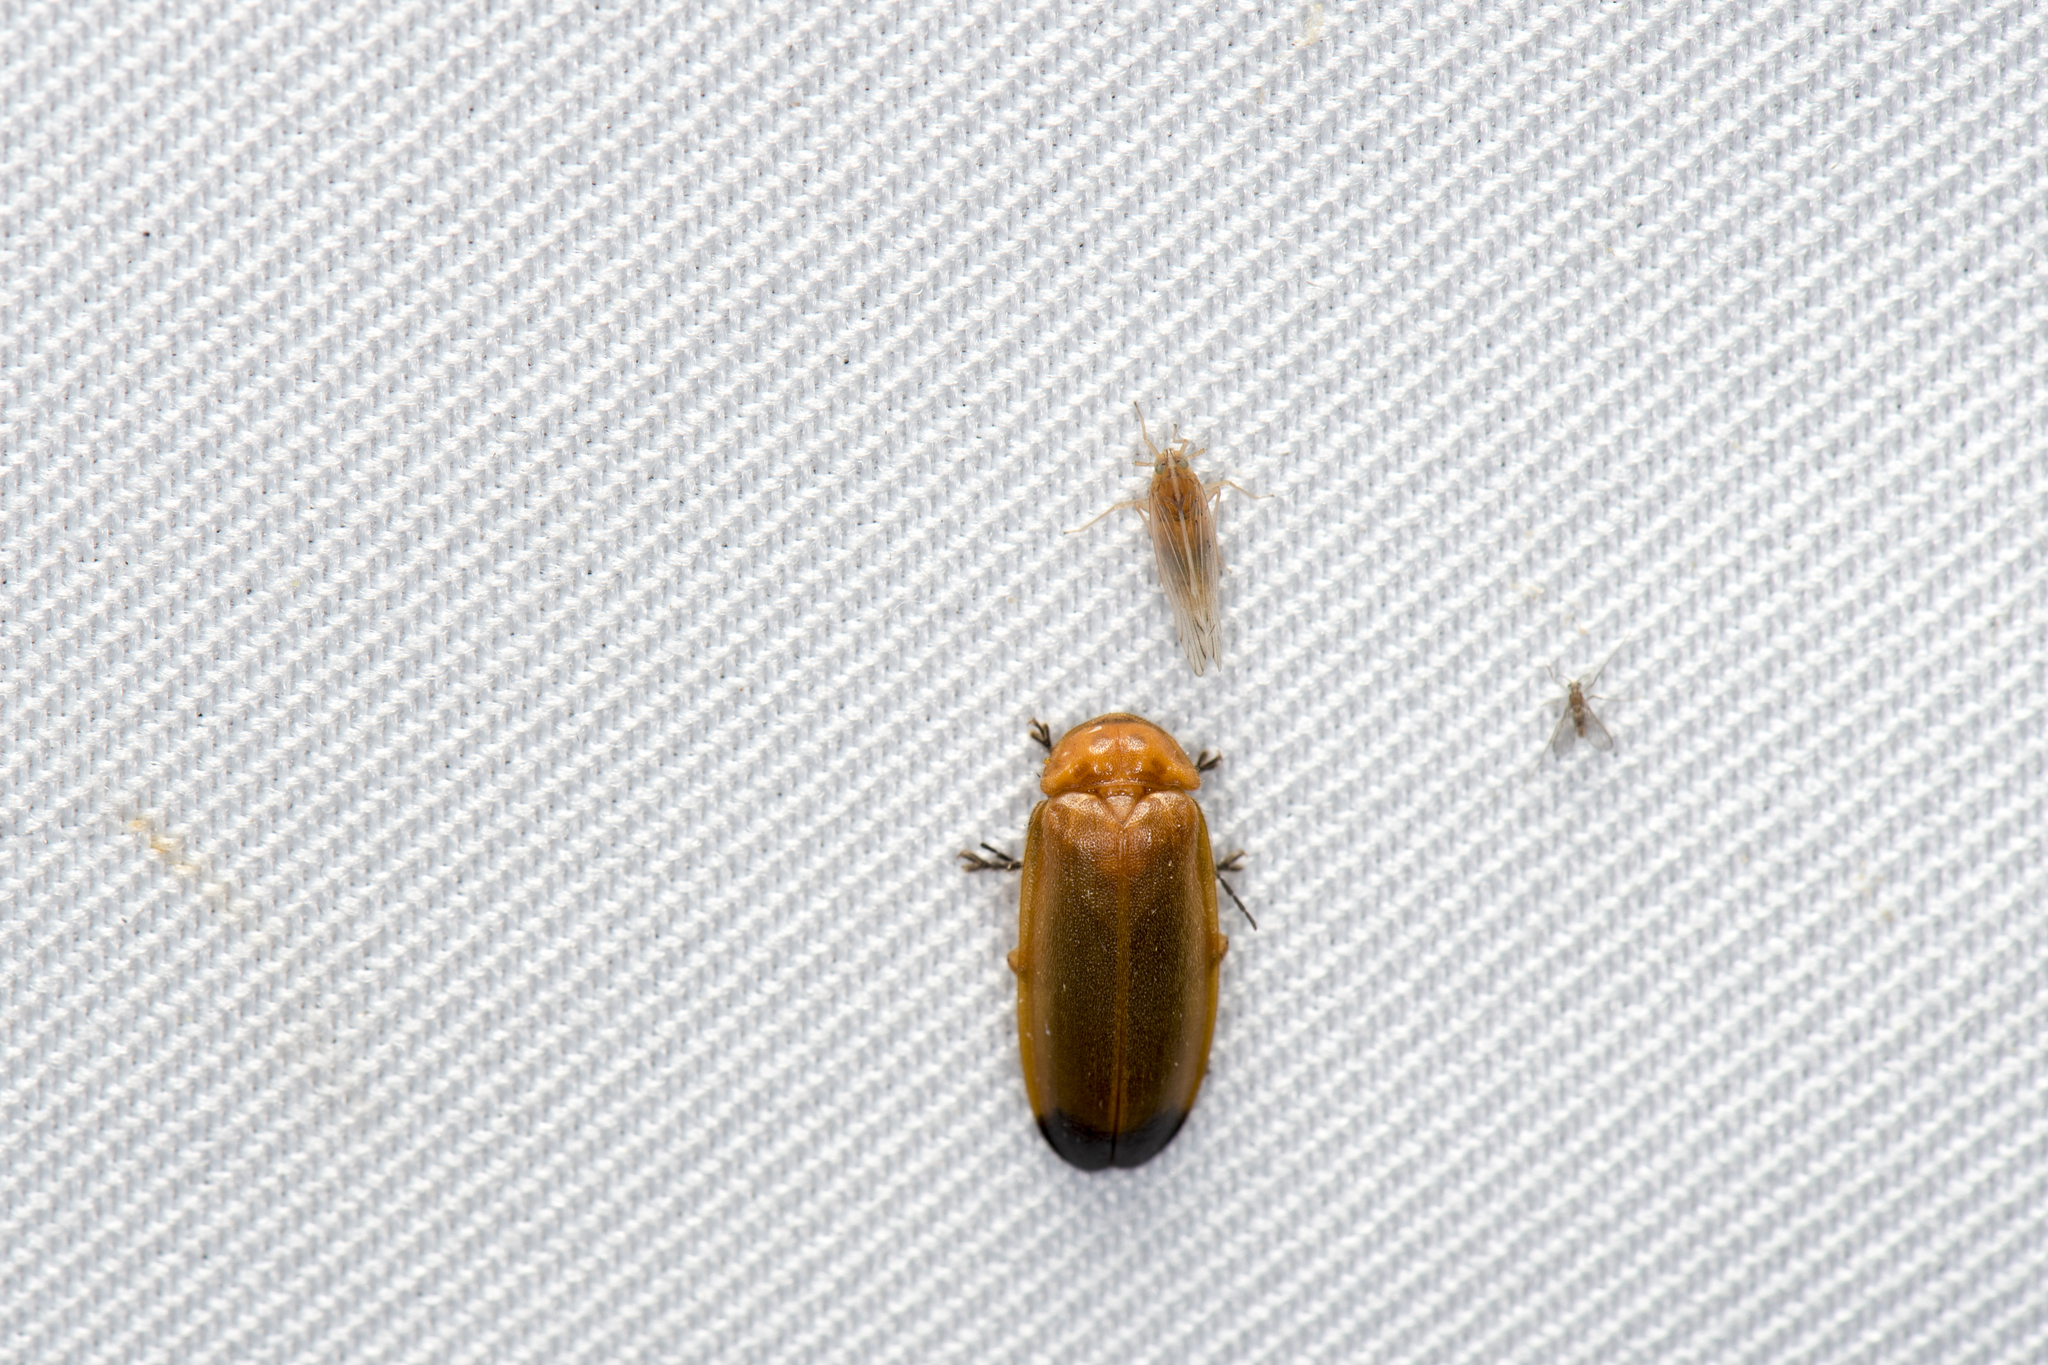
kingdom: Animalia
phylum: Arthropoda
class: Insecta
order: Coleoptera
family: Lampyridae
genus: Abscondita
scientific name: Abscondita anceyi
